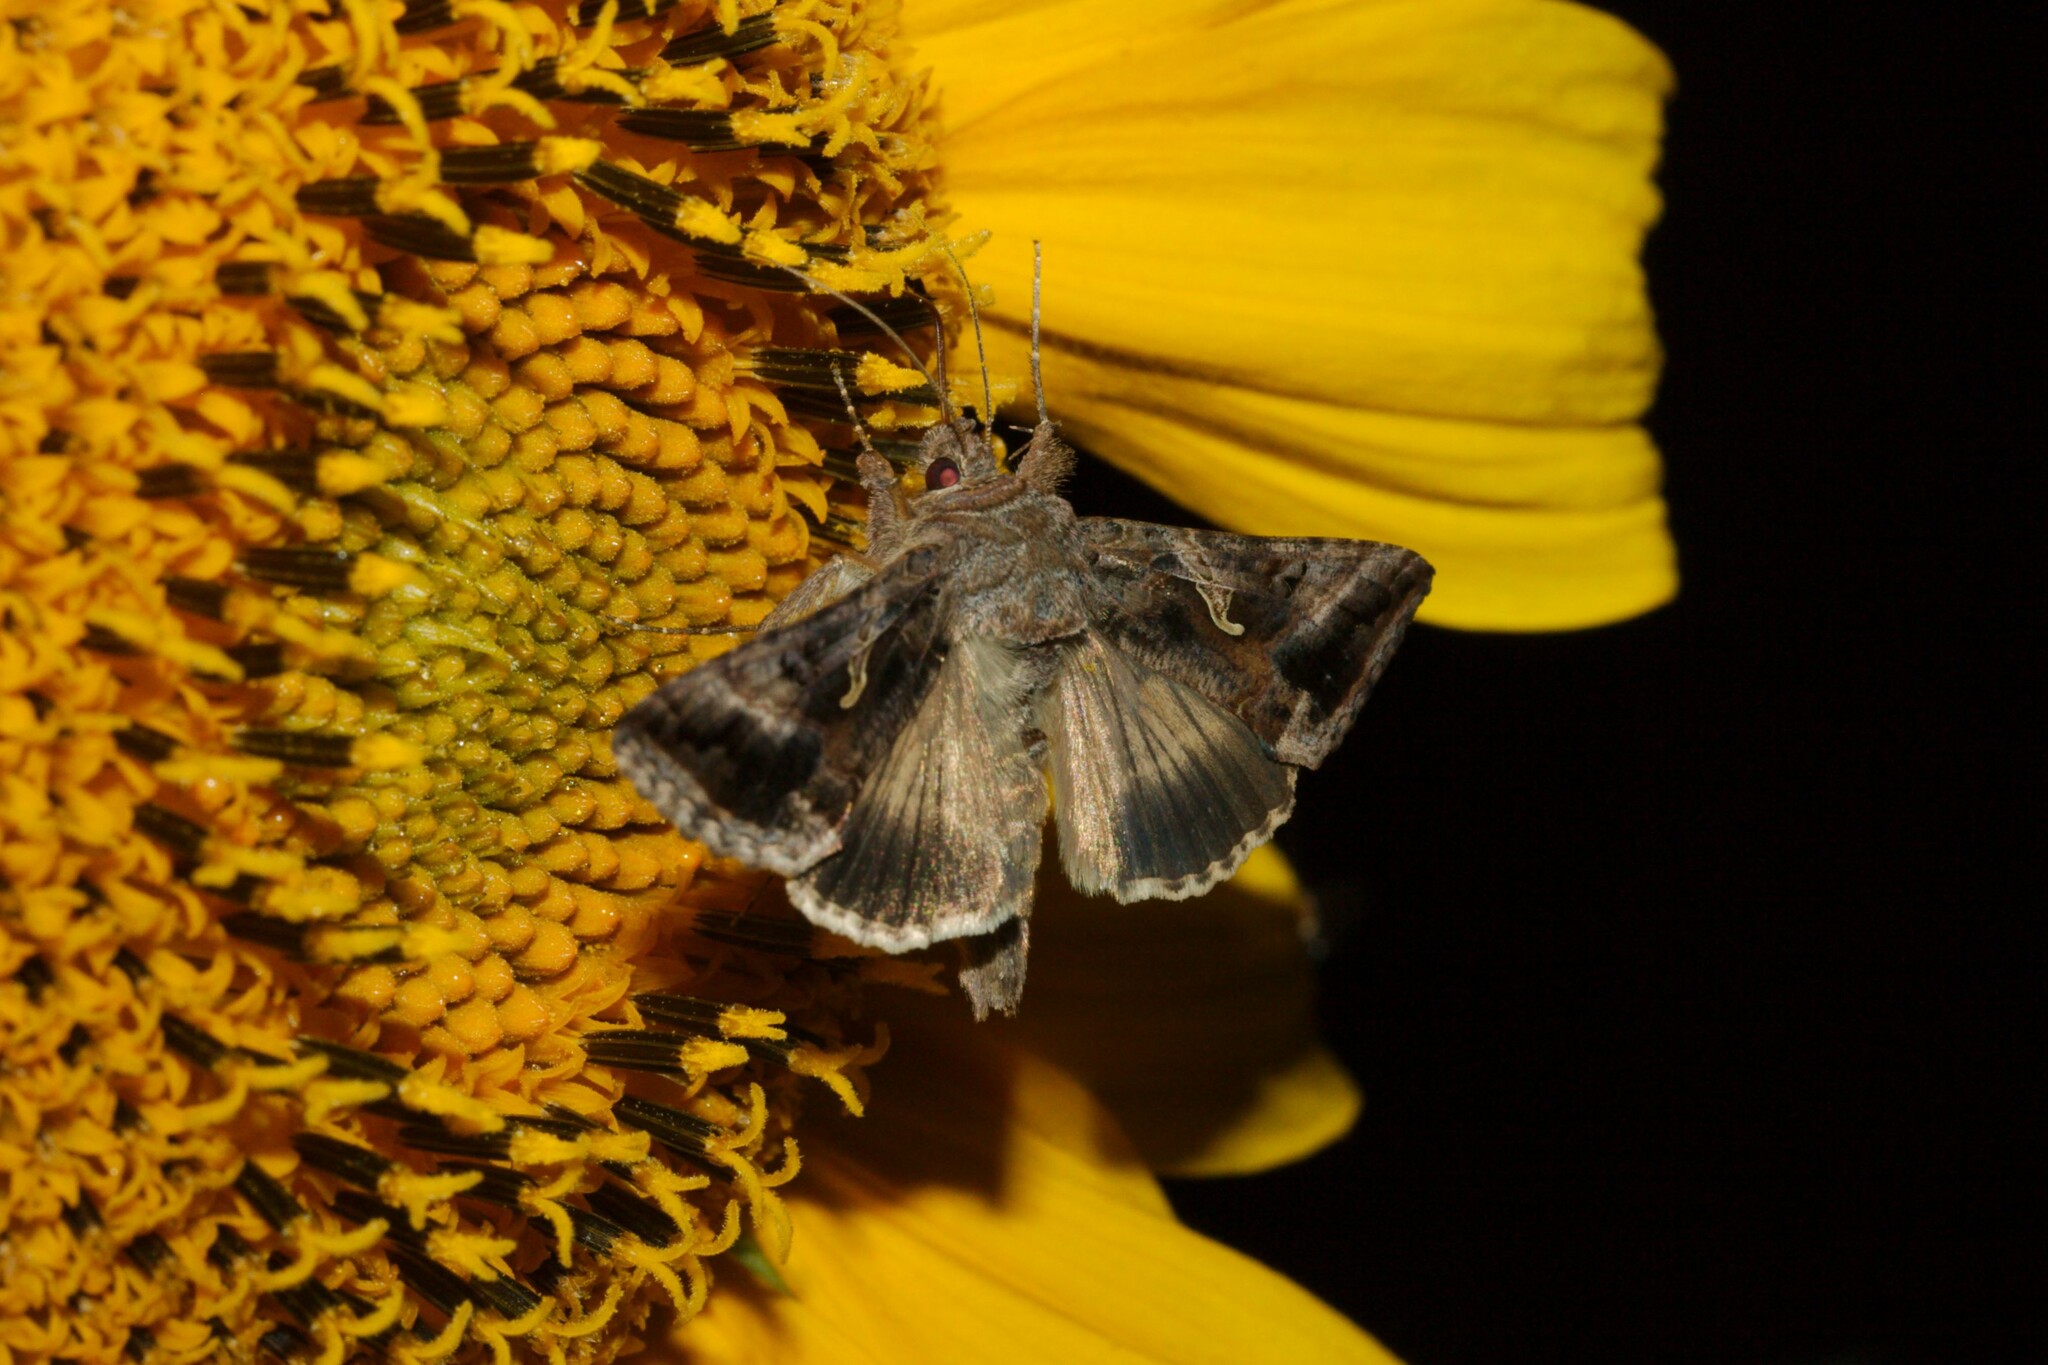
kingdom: Animalia
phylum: Arthropoda
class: Insecta
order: Lepidoptera
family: Noctuidae
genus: Autographa
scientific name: Autographa gamma
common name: Silver y
